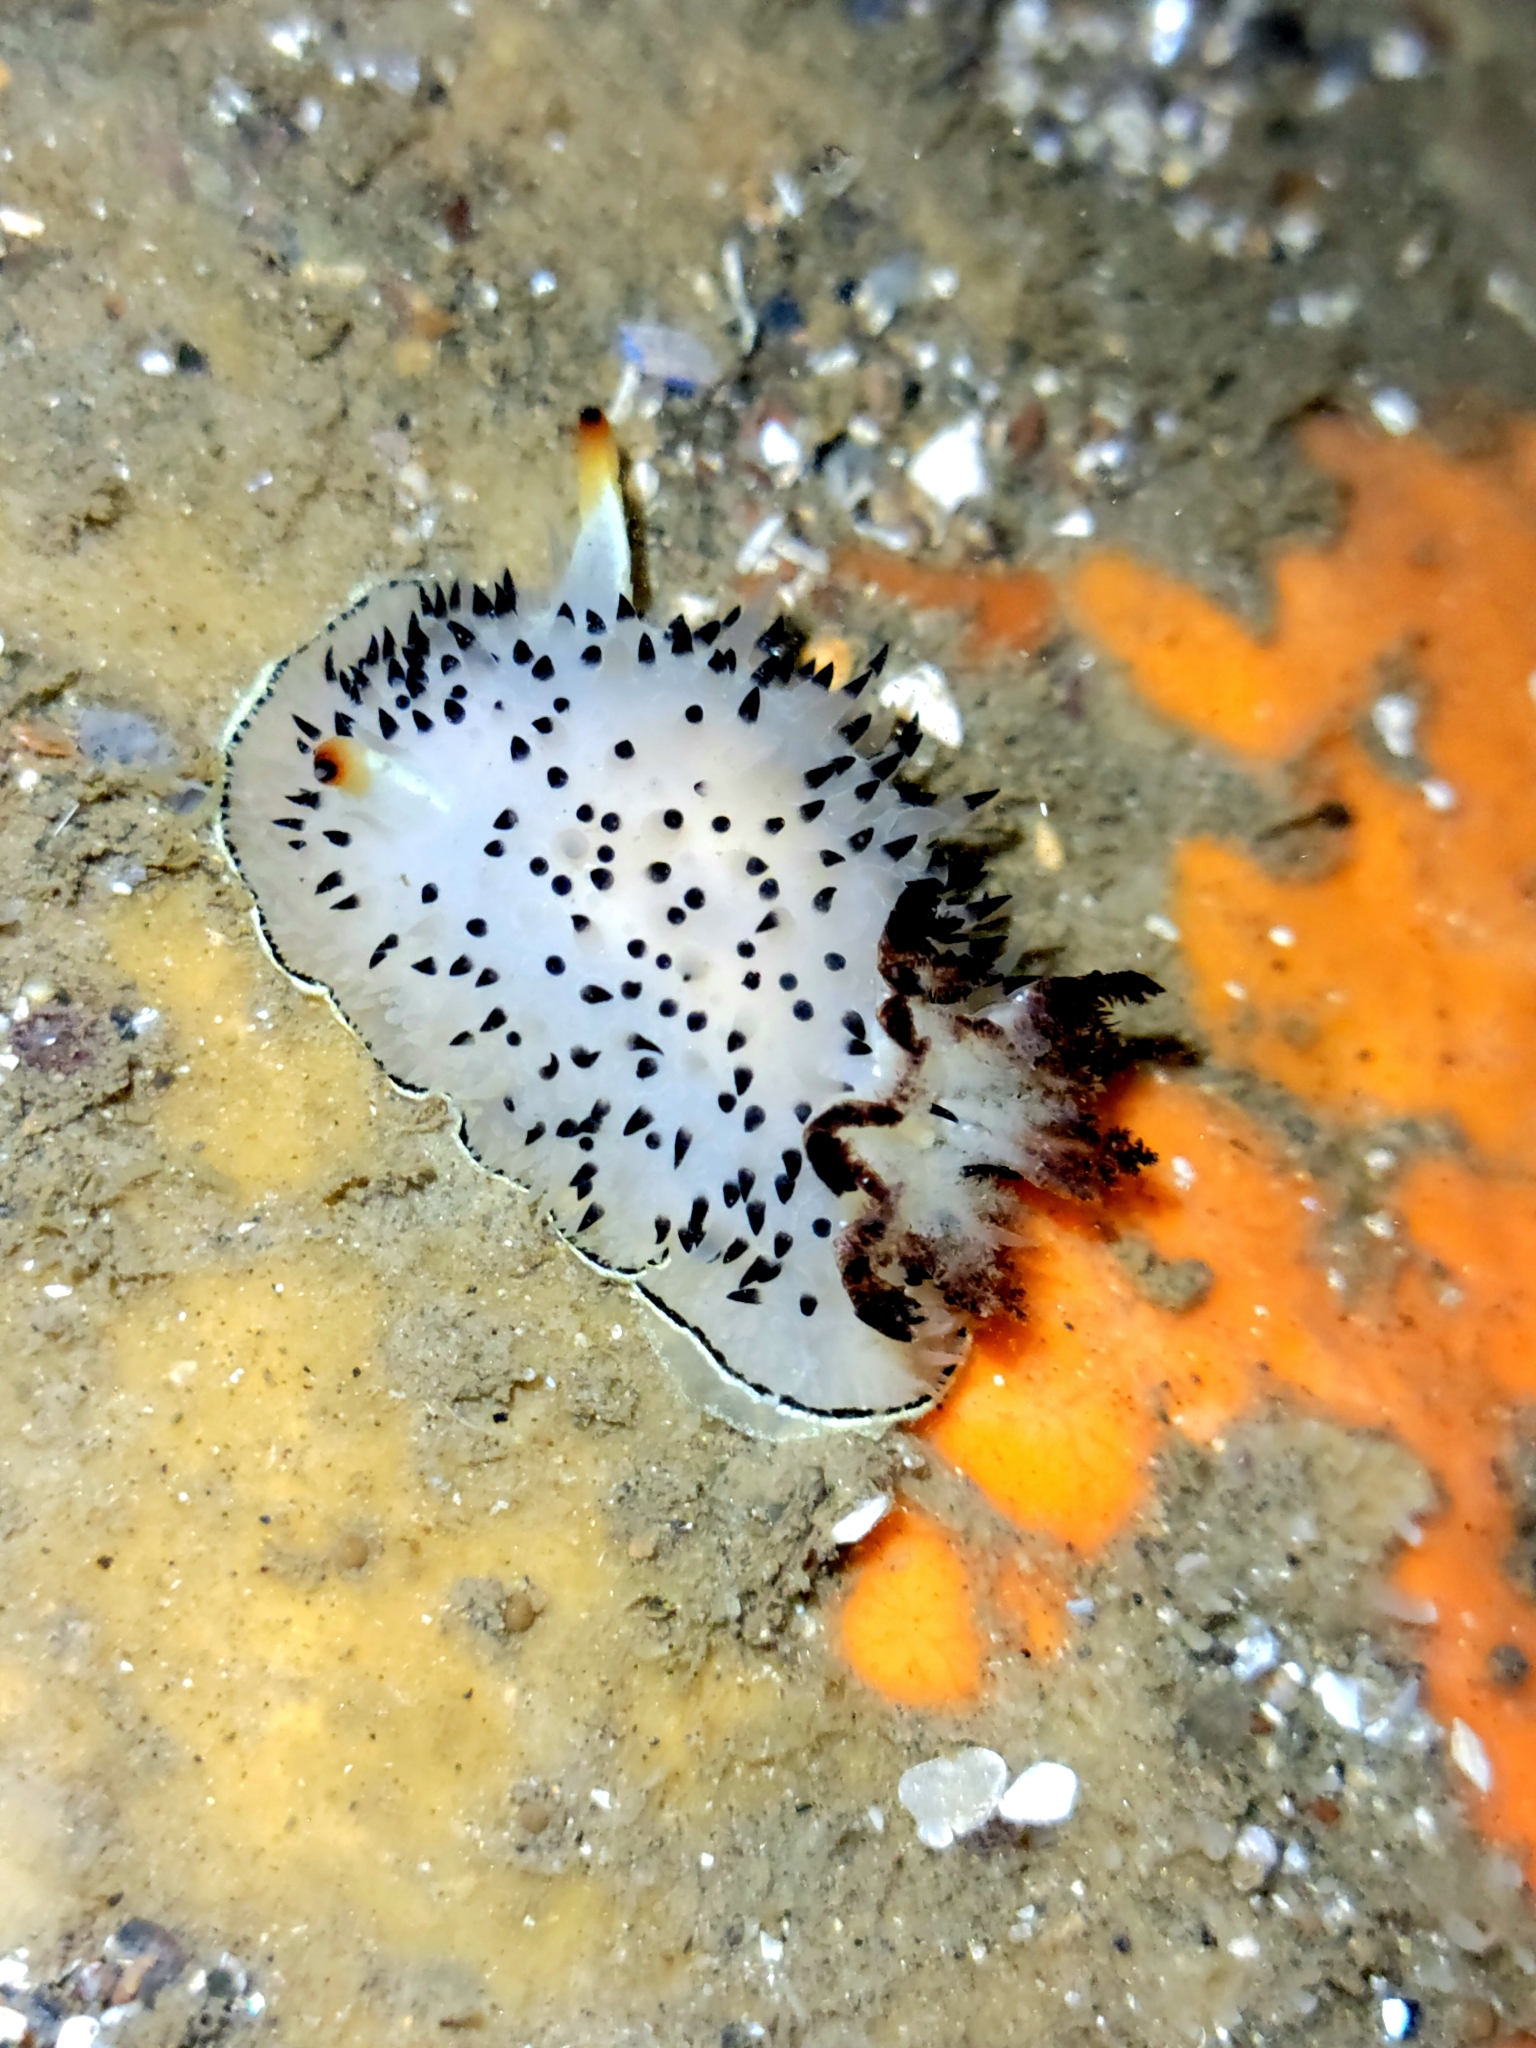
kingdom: Animalia
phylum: Mollusca
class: Gastropoda
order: Nudibranchia
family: Onchidorididae
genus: Acanthodoris
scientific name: Acanthodoris rhodoceras
